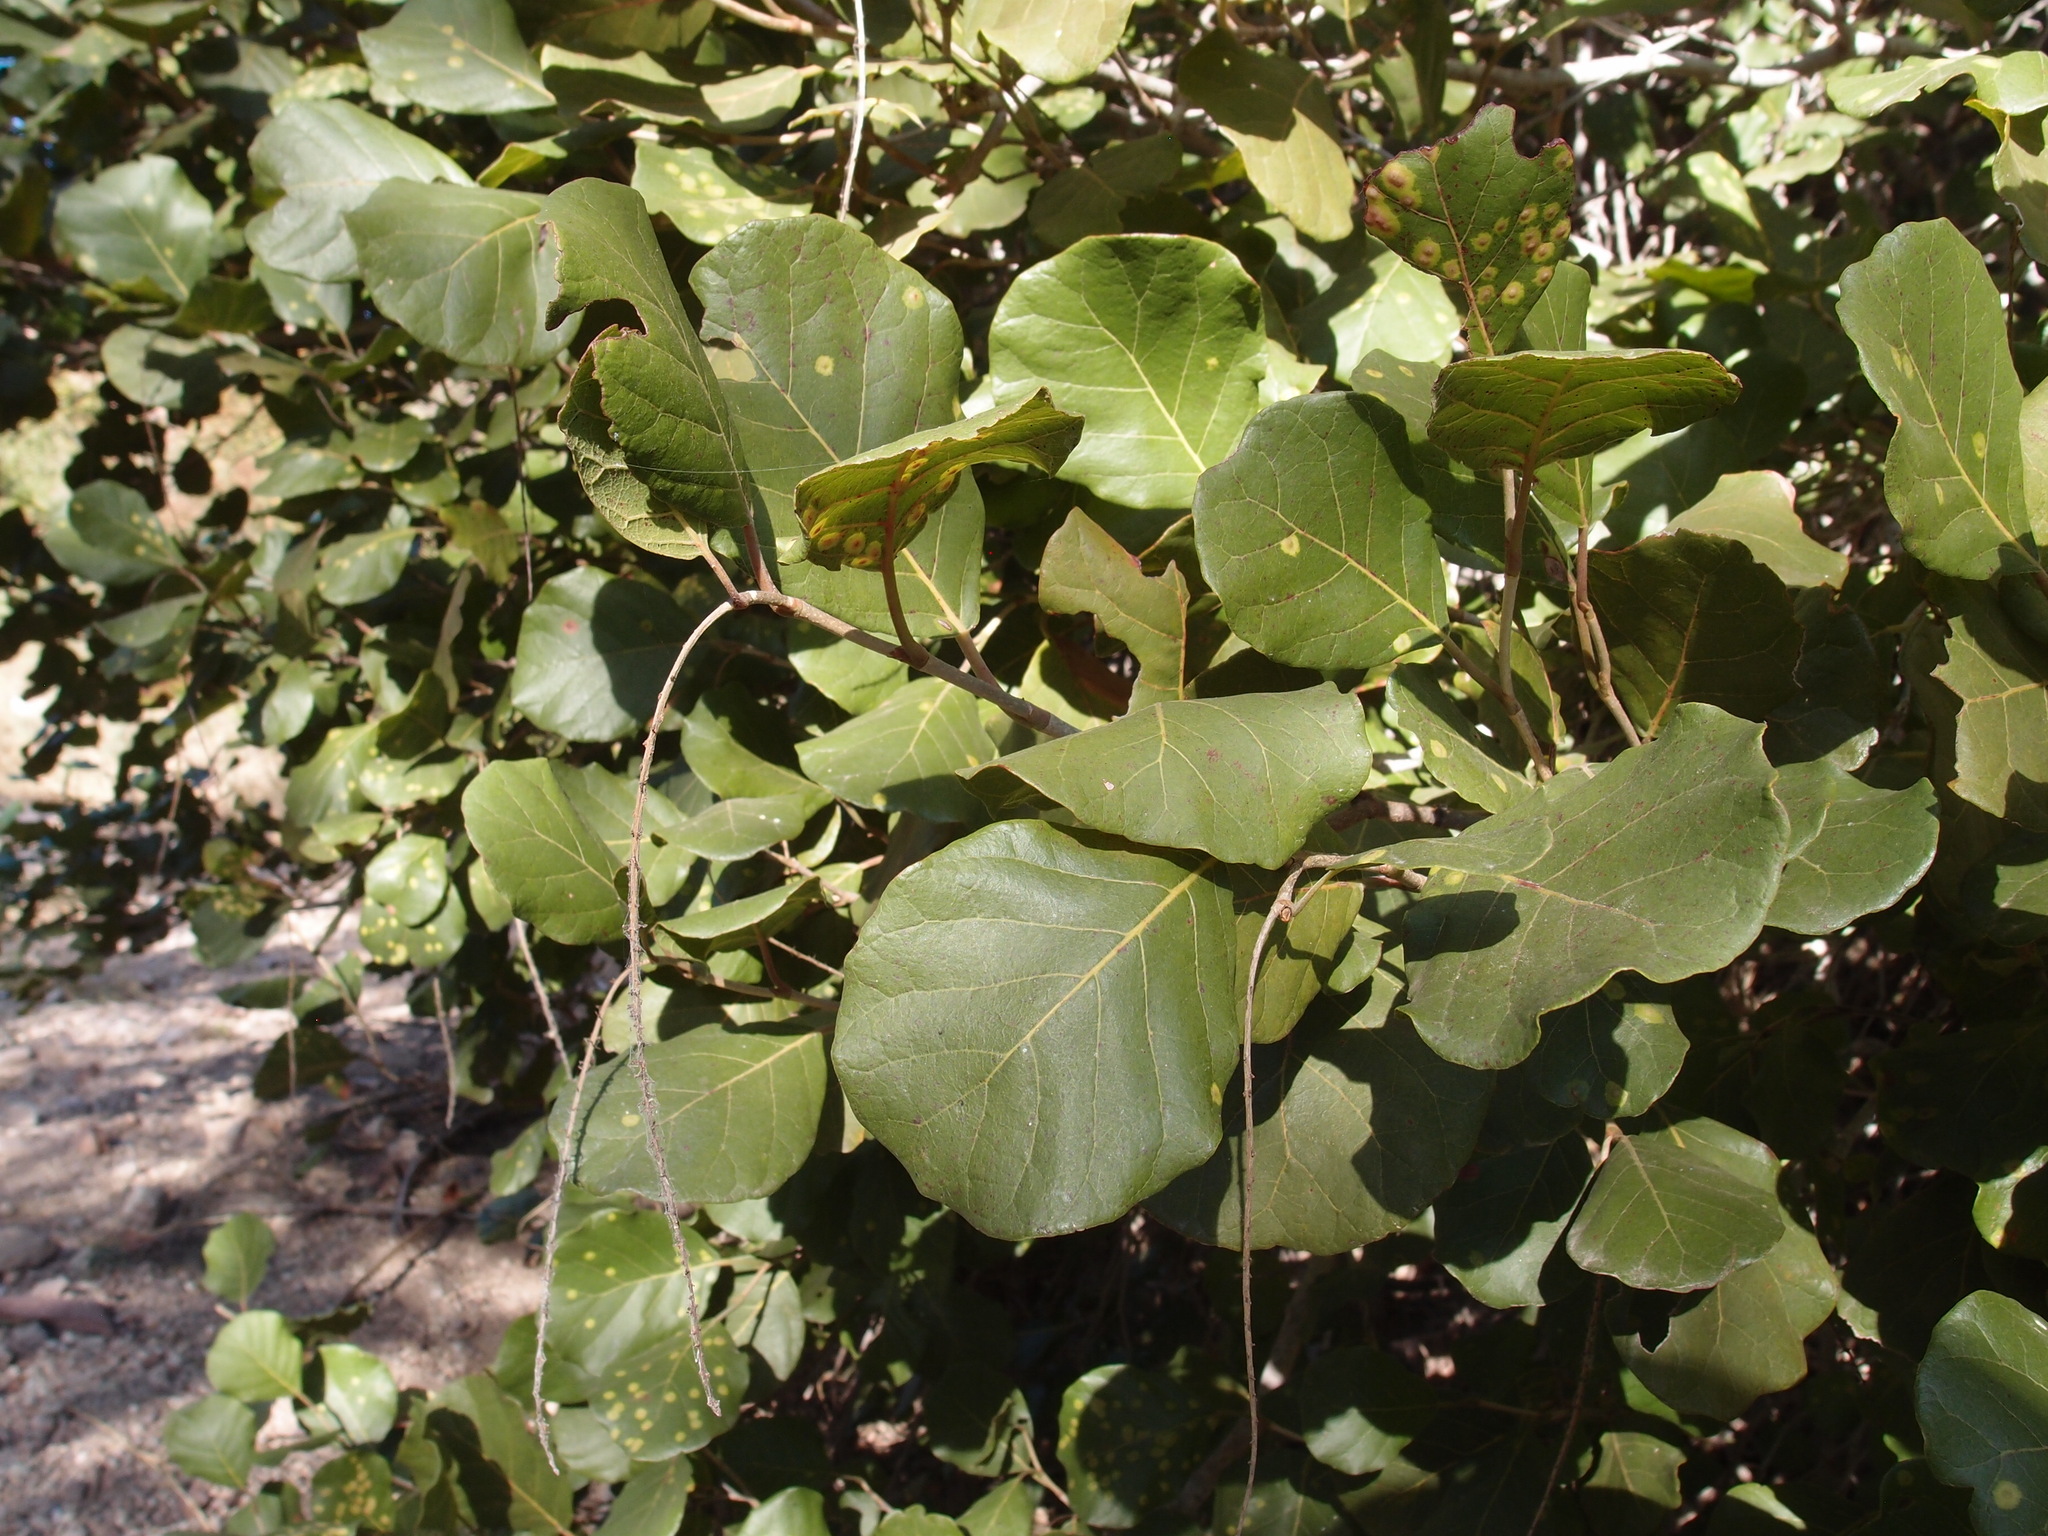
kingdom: Plantae
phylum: Tracheophyta
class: Magnoliopsida
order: Caryophyllales
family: Polygonaceae
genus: Coccoloba
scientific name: Coccoloba goldmanii
